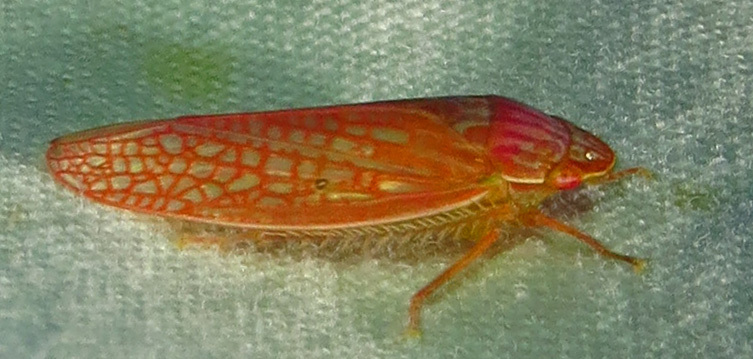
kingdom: Animalia
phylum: Arthropoda
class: Insecta
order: Hemiptera
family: Cicadellidae
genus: Gyponana
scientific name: Gyponana gladia
